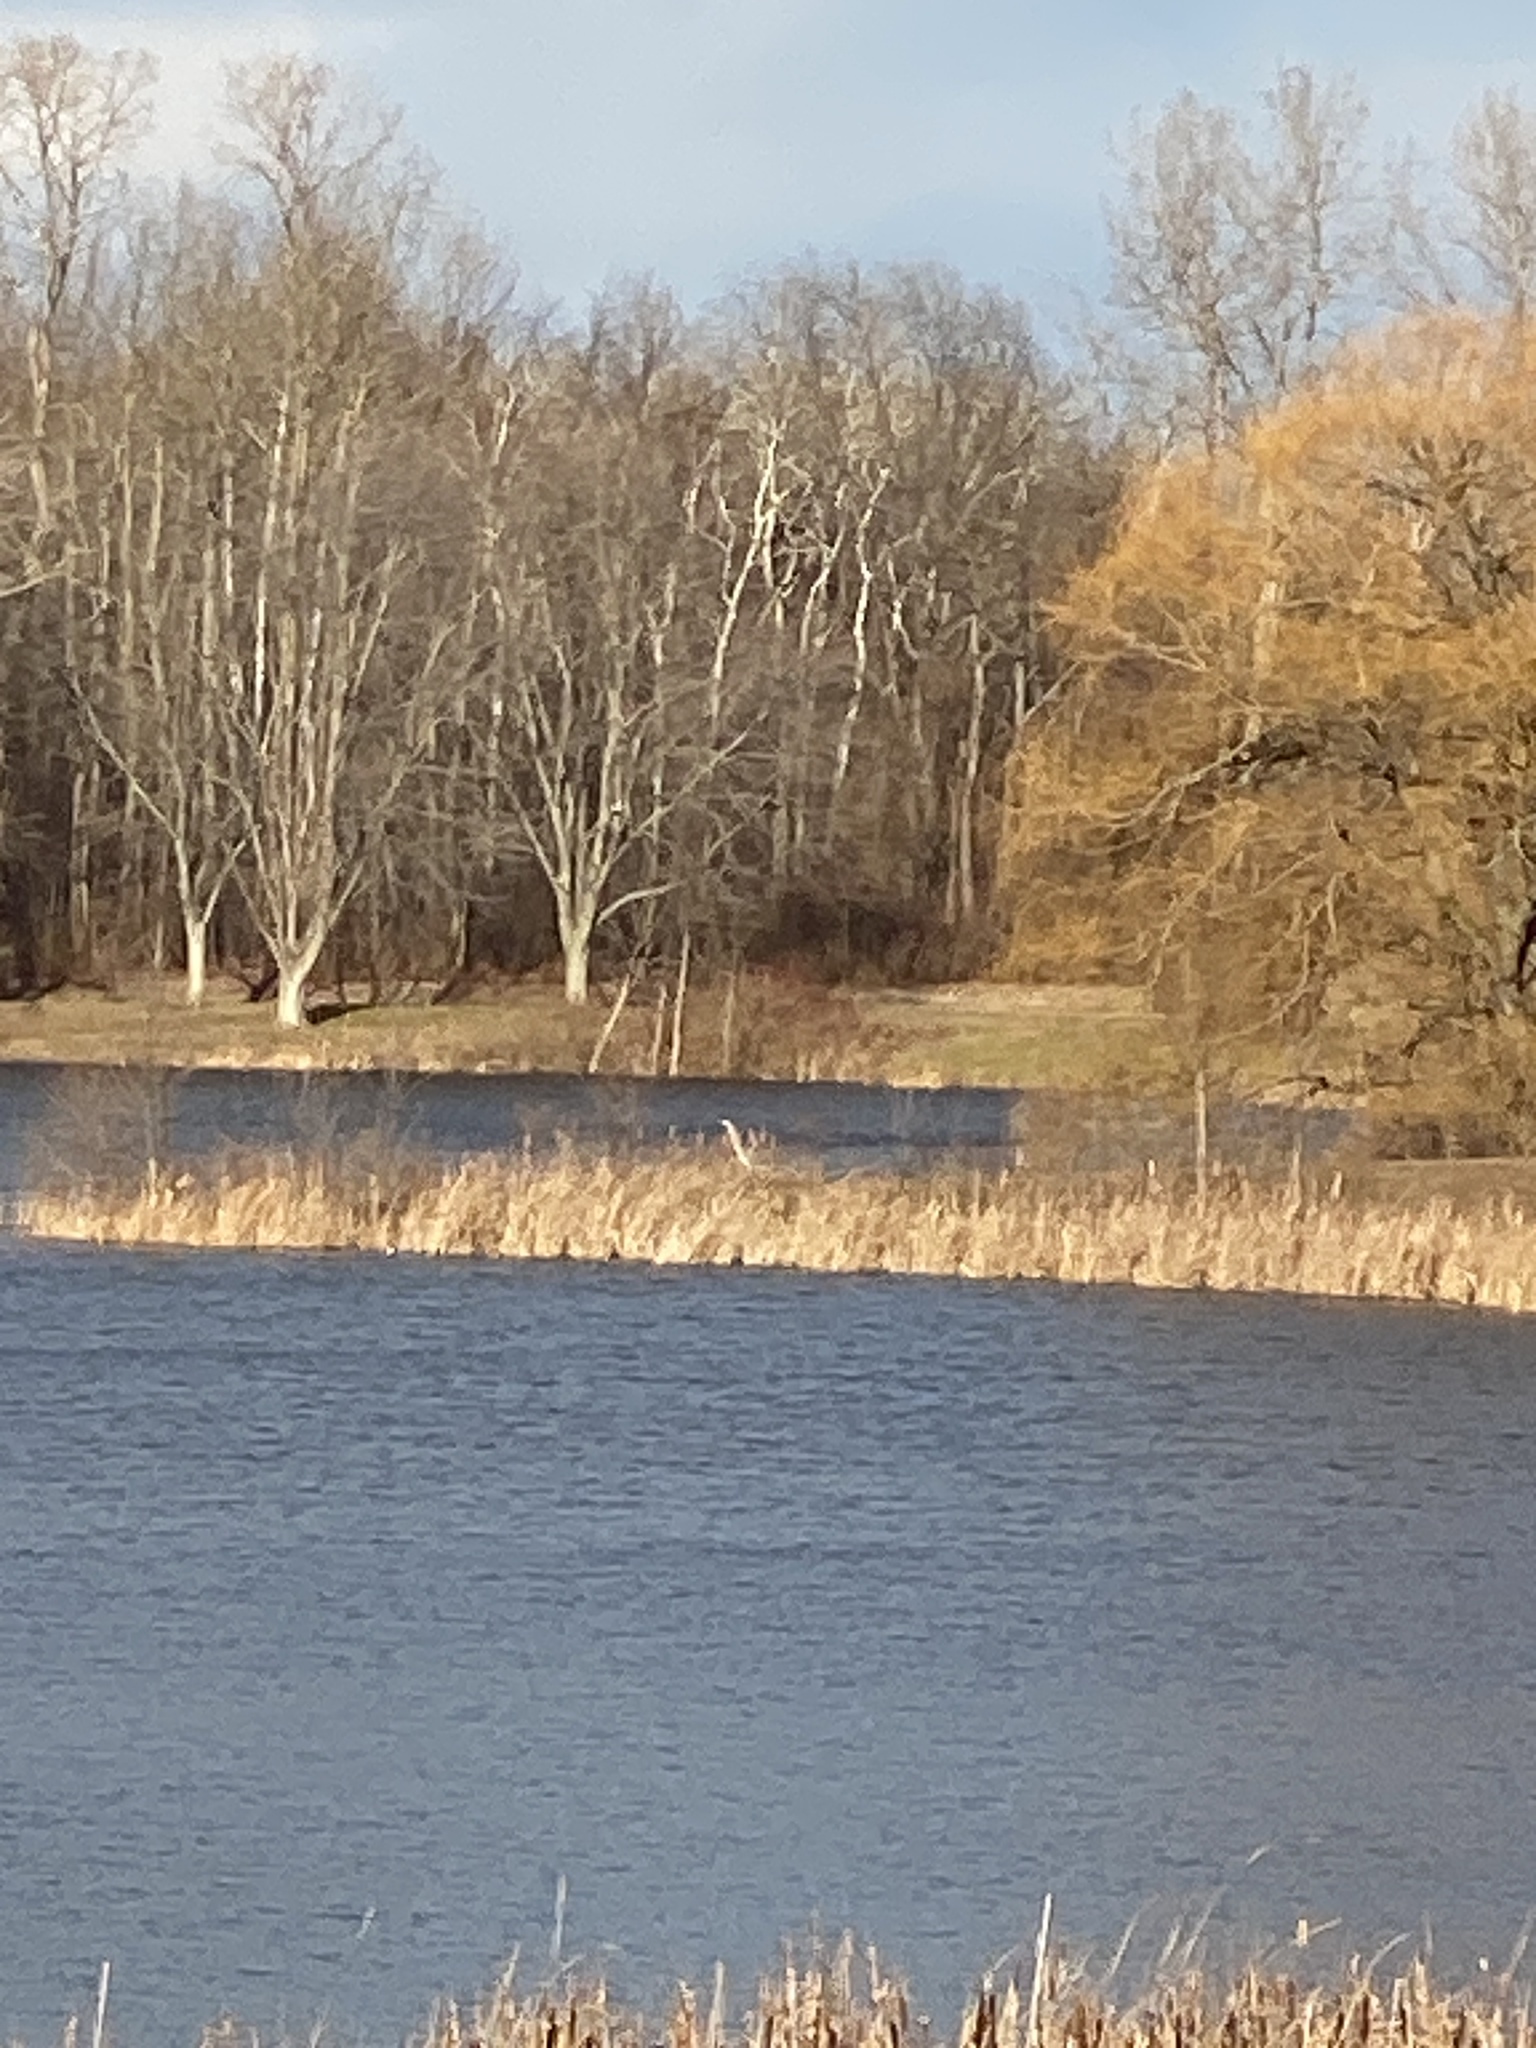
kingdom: Animalia
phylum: Chordata
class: Aves
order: Pelecaniformes
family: Ardeidae
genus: Ardea
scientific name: Ardea herodias
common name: Great blue heron
